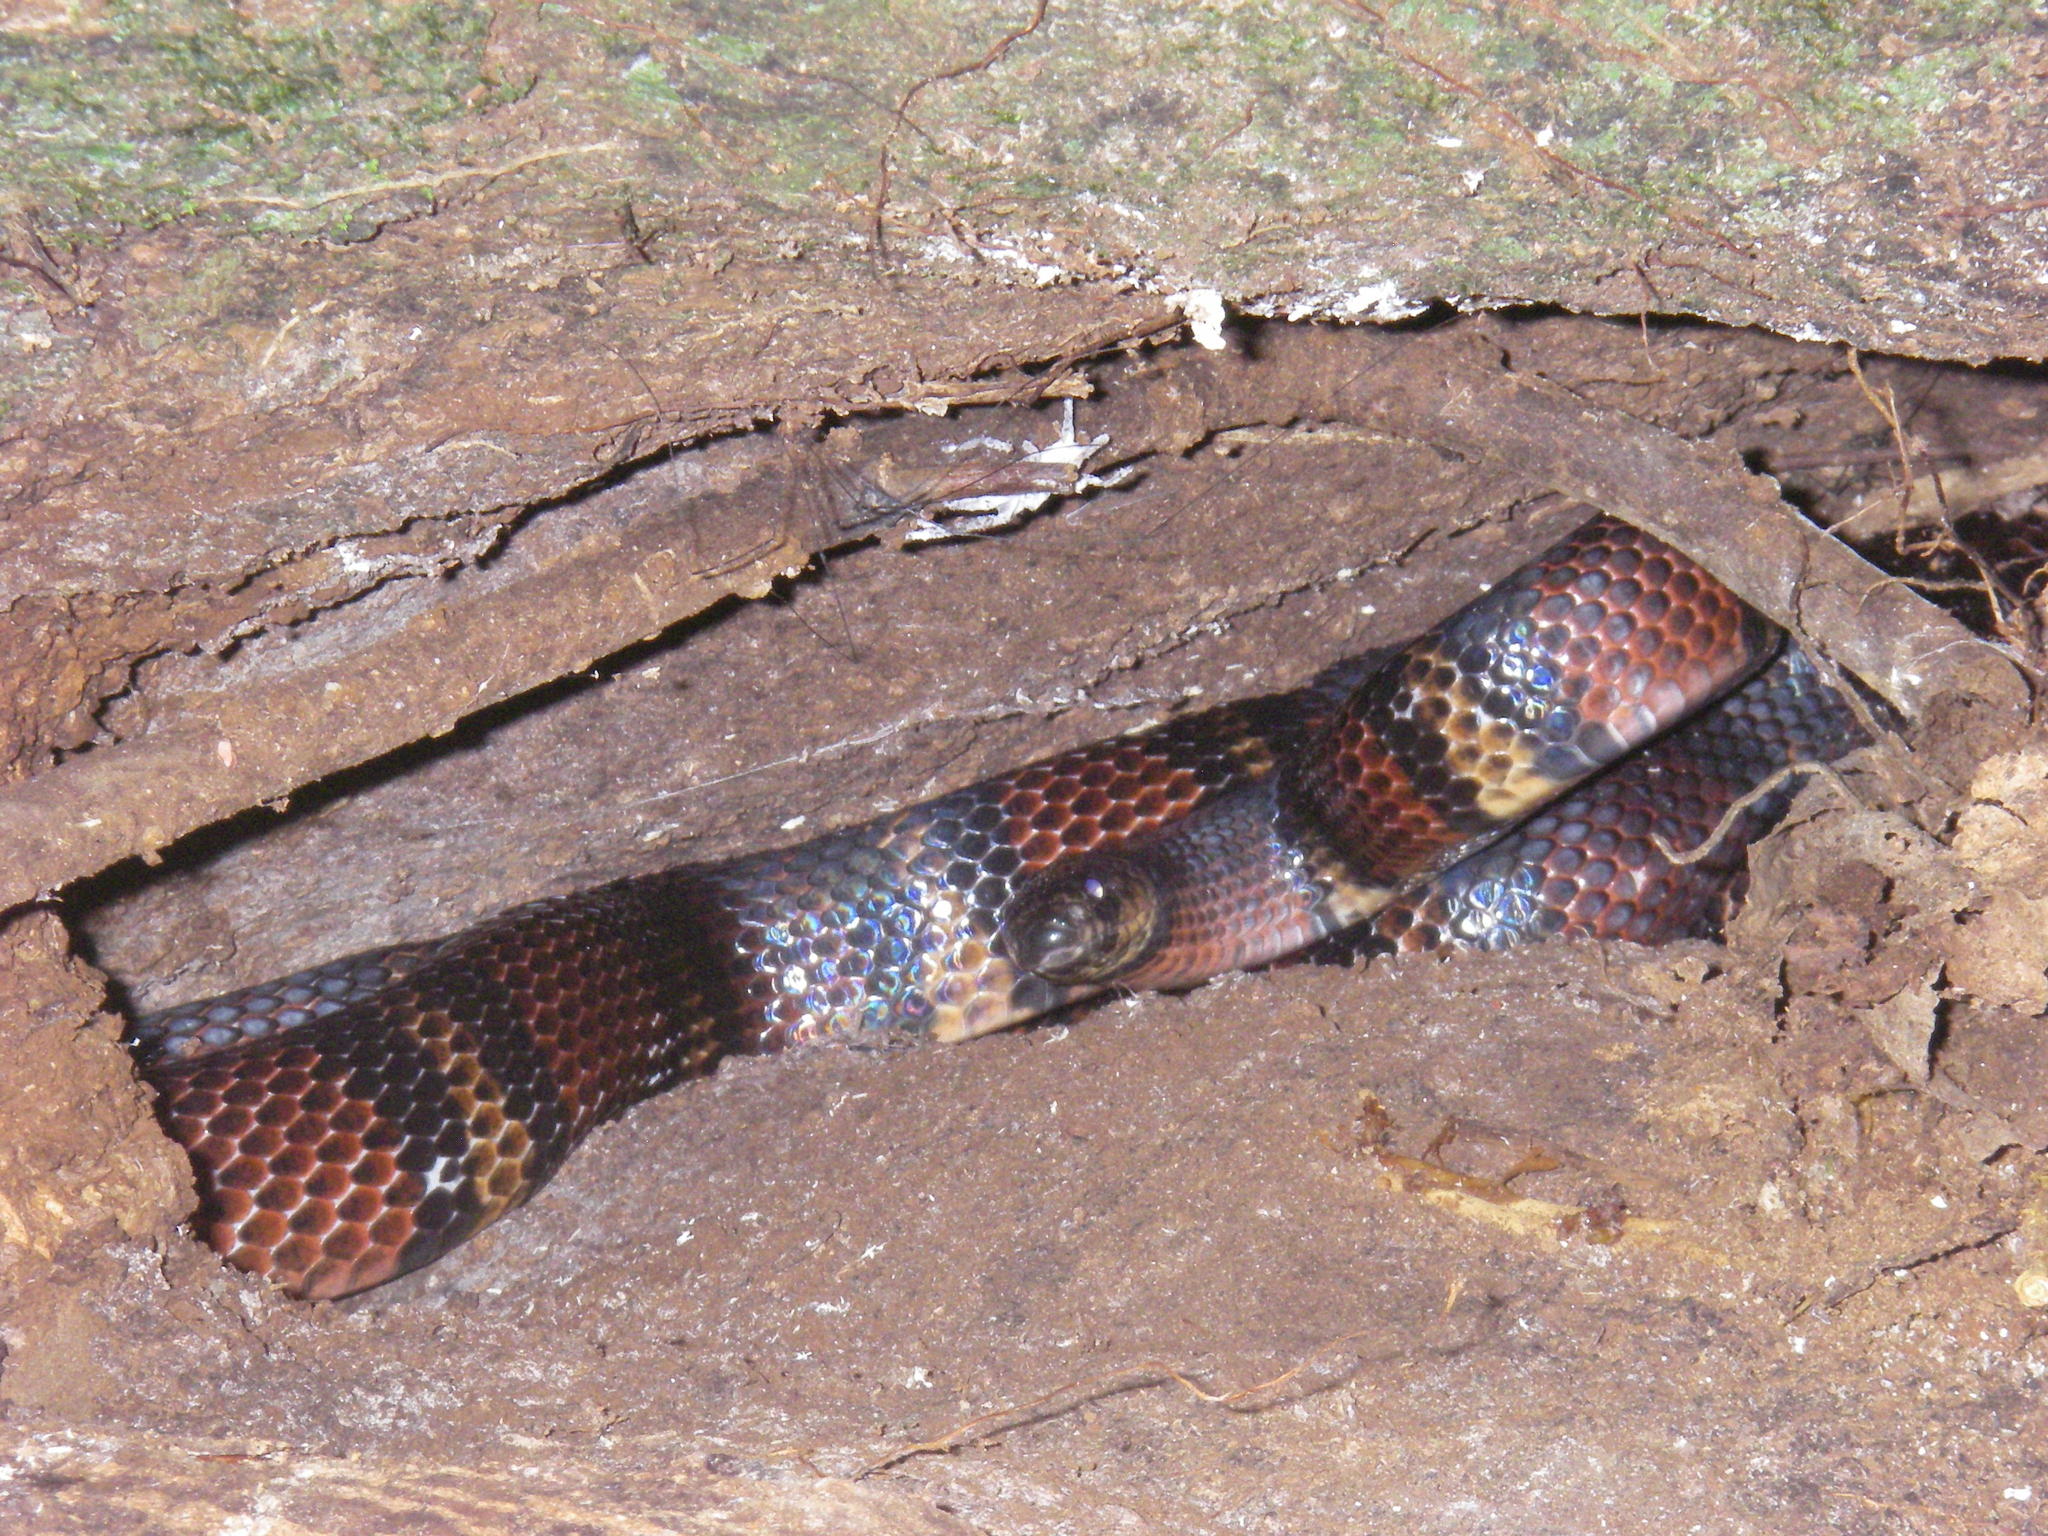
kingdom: Animalia
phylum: Chordata
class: Squamata
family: Colubridae
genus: Lampropeltis
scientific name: Lampropeltis micropholis
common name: Ecuadorian milksnake
